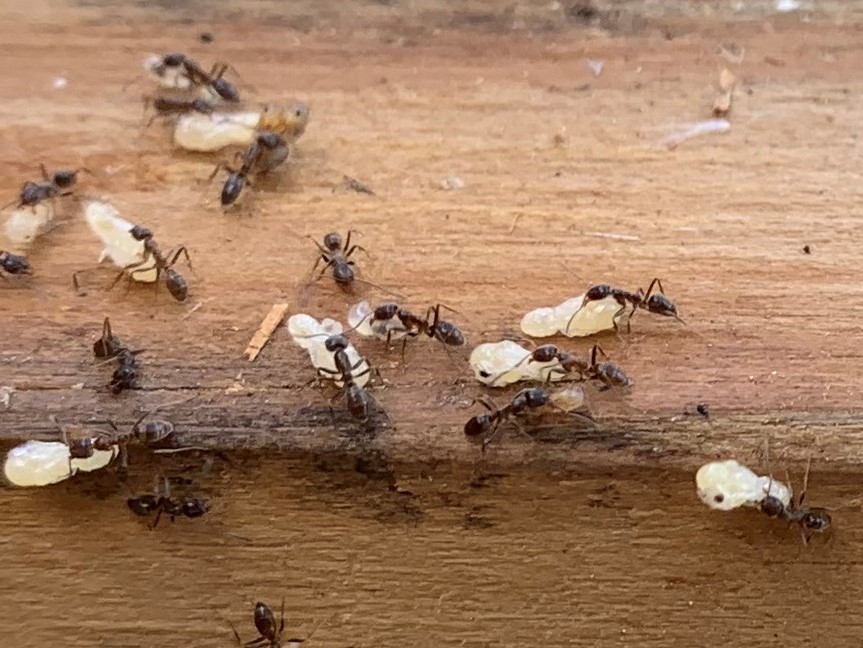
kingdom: Animalia
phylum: Arthropoda
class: Insecta
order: Hymenoptera
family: Formicidae
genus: Linepithema
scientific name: Linepithema humile
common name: Argentine ant
